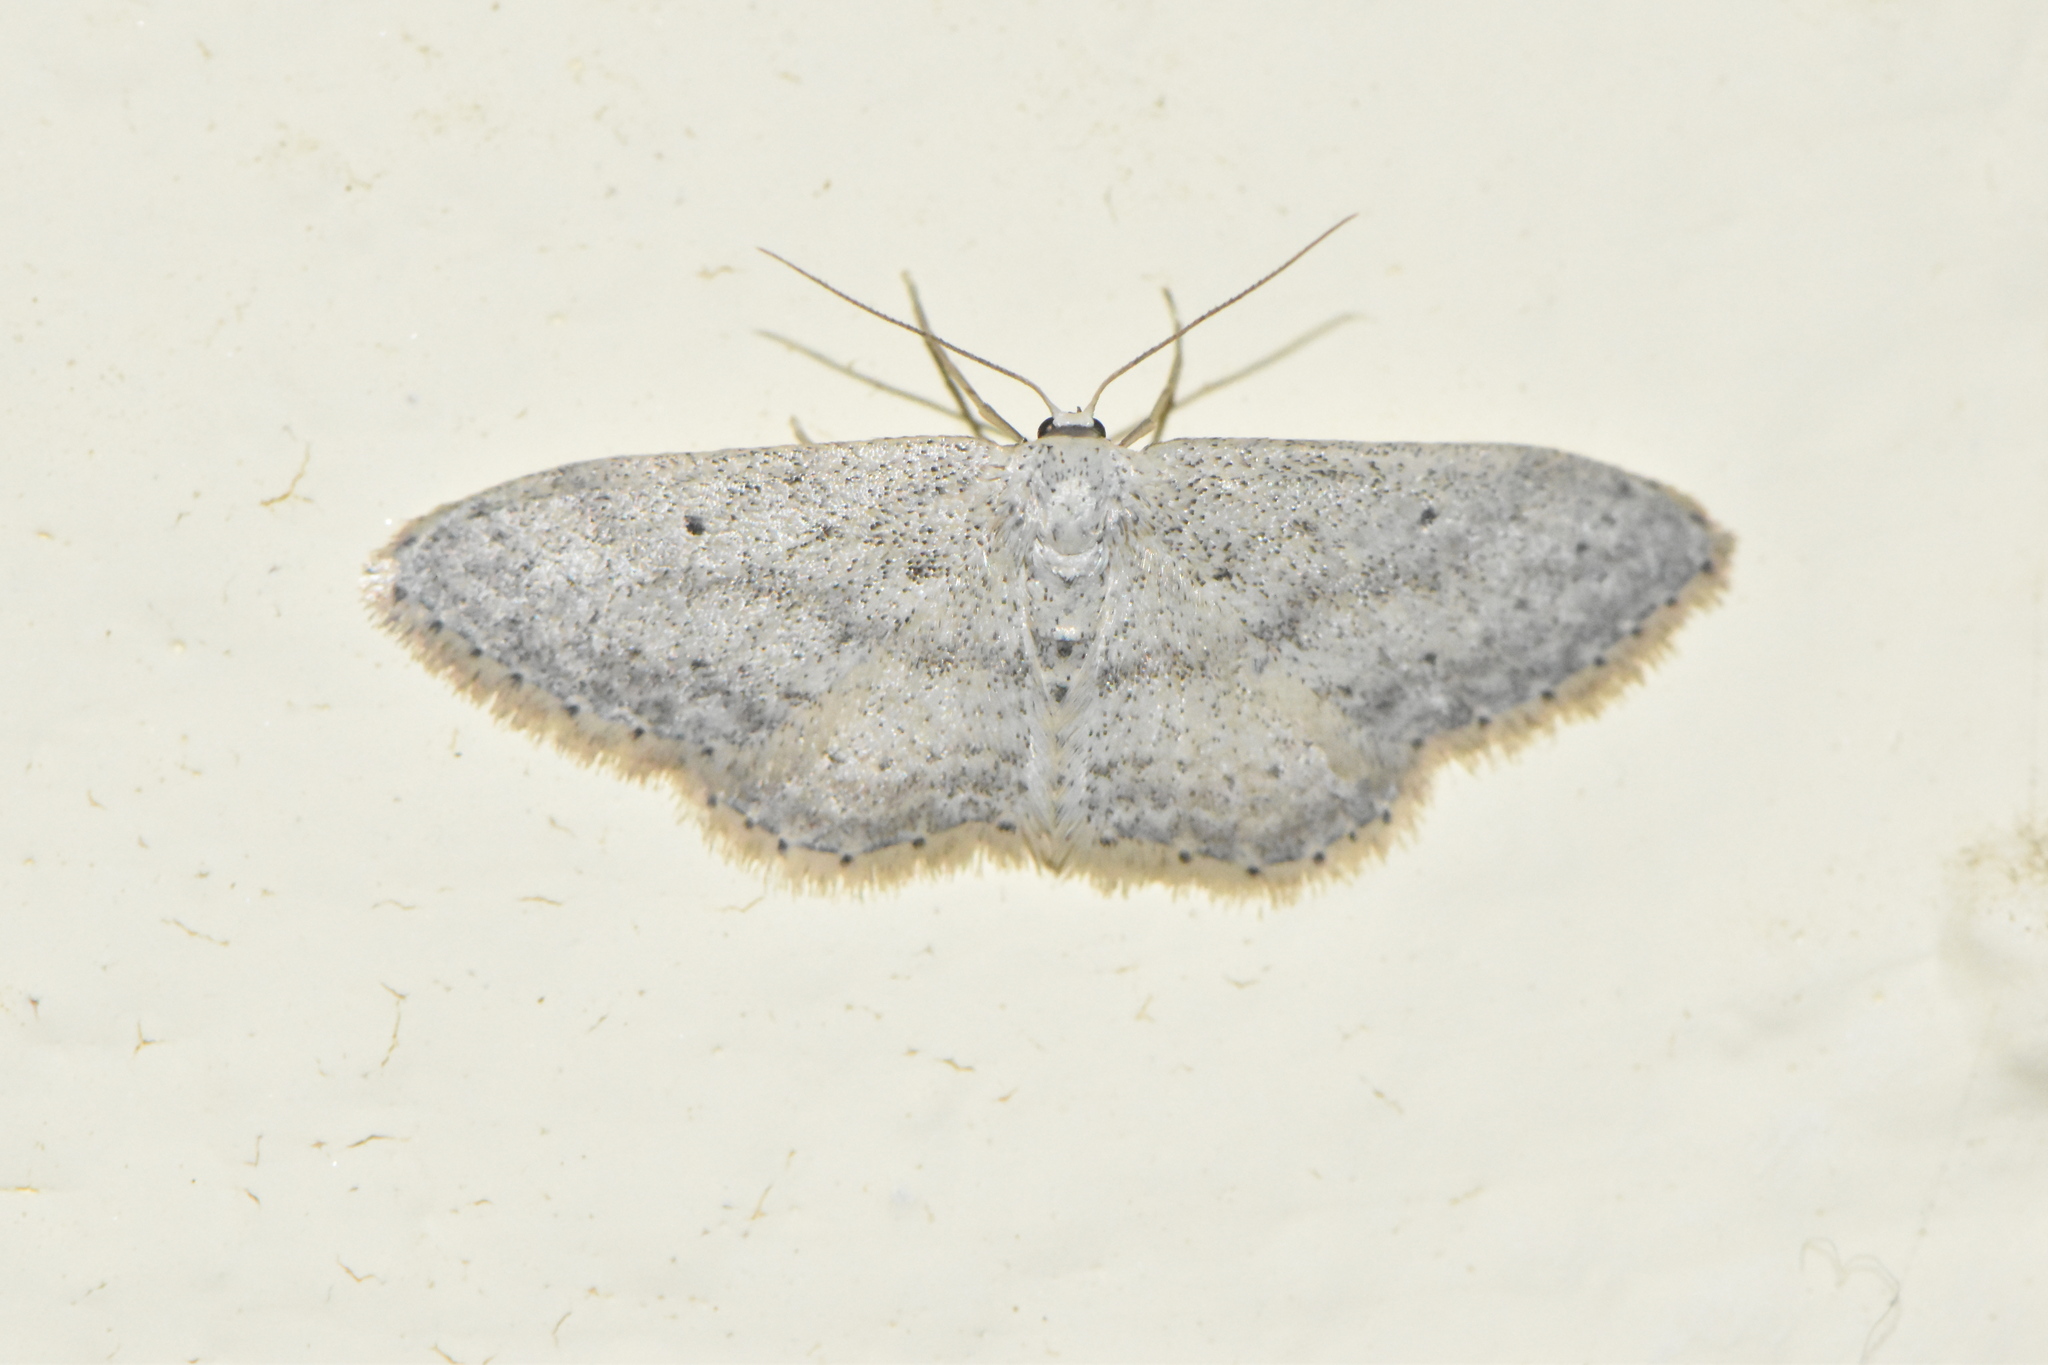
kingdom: Animalia
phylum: Arthropoda
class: Insecta
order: Lepidoptera
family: Geometridae
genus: Idaea
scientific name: Idaea seriata
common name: Small dusty wave
